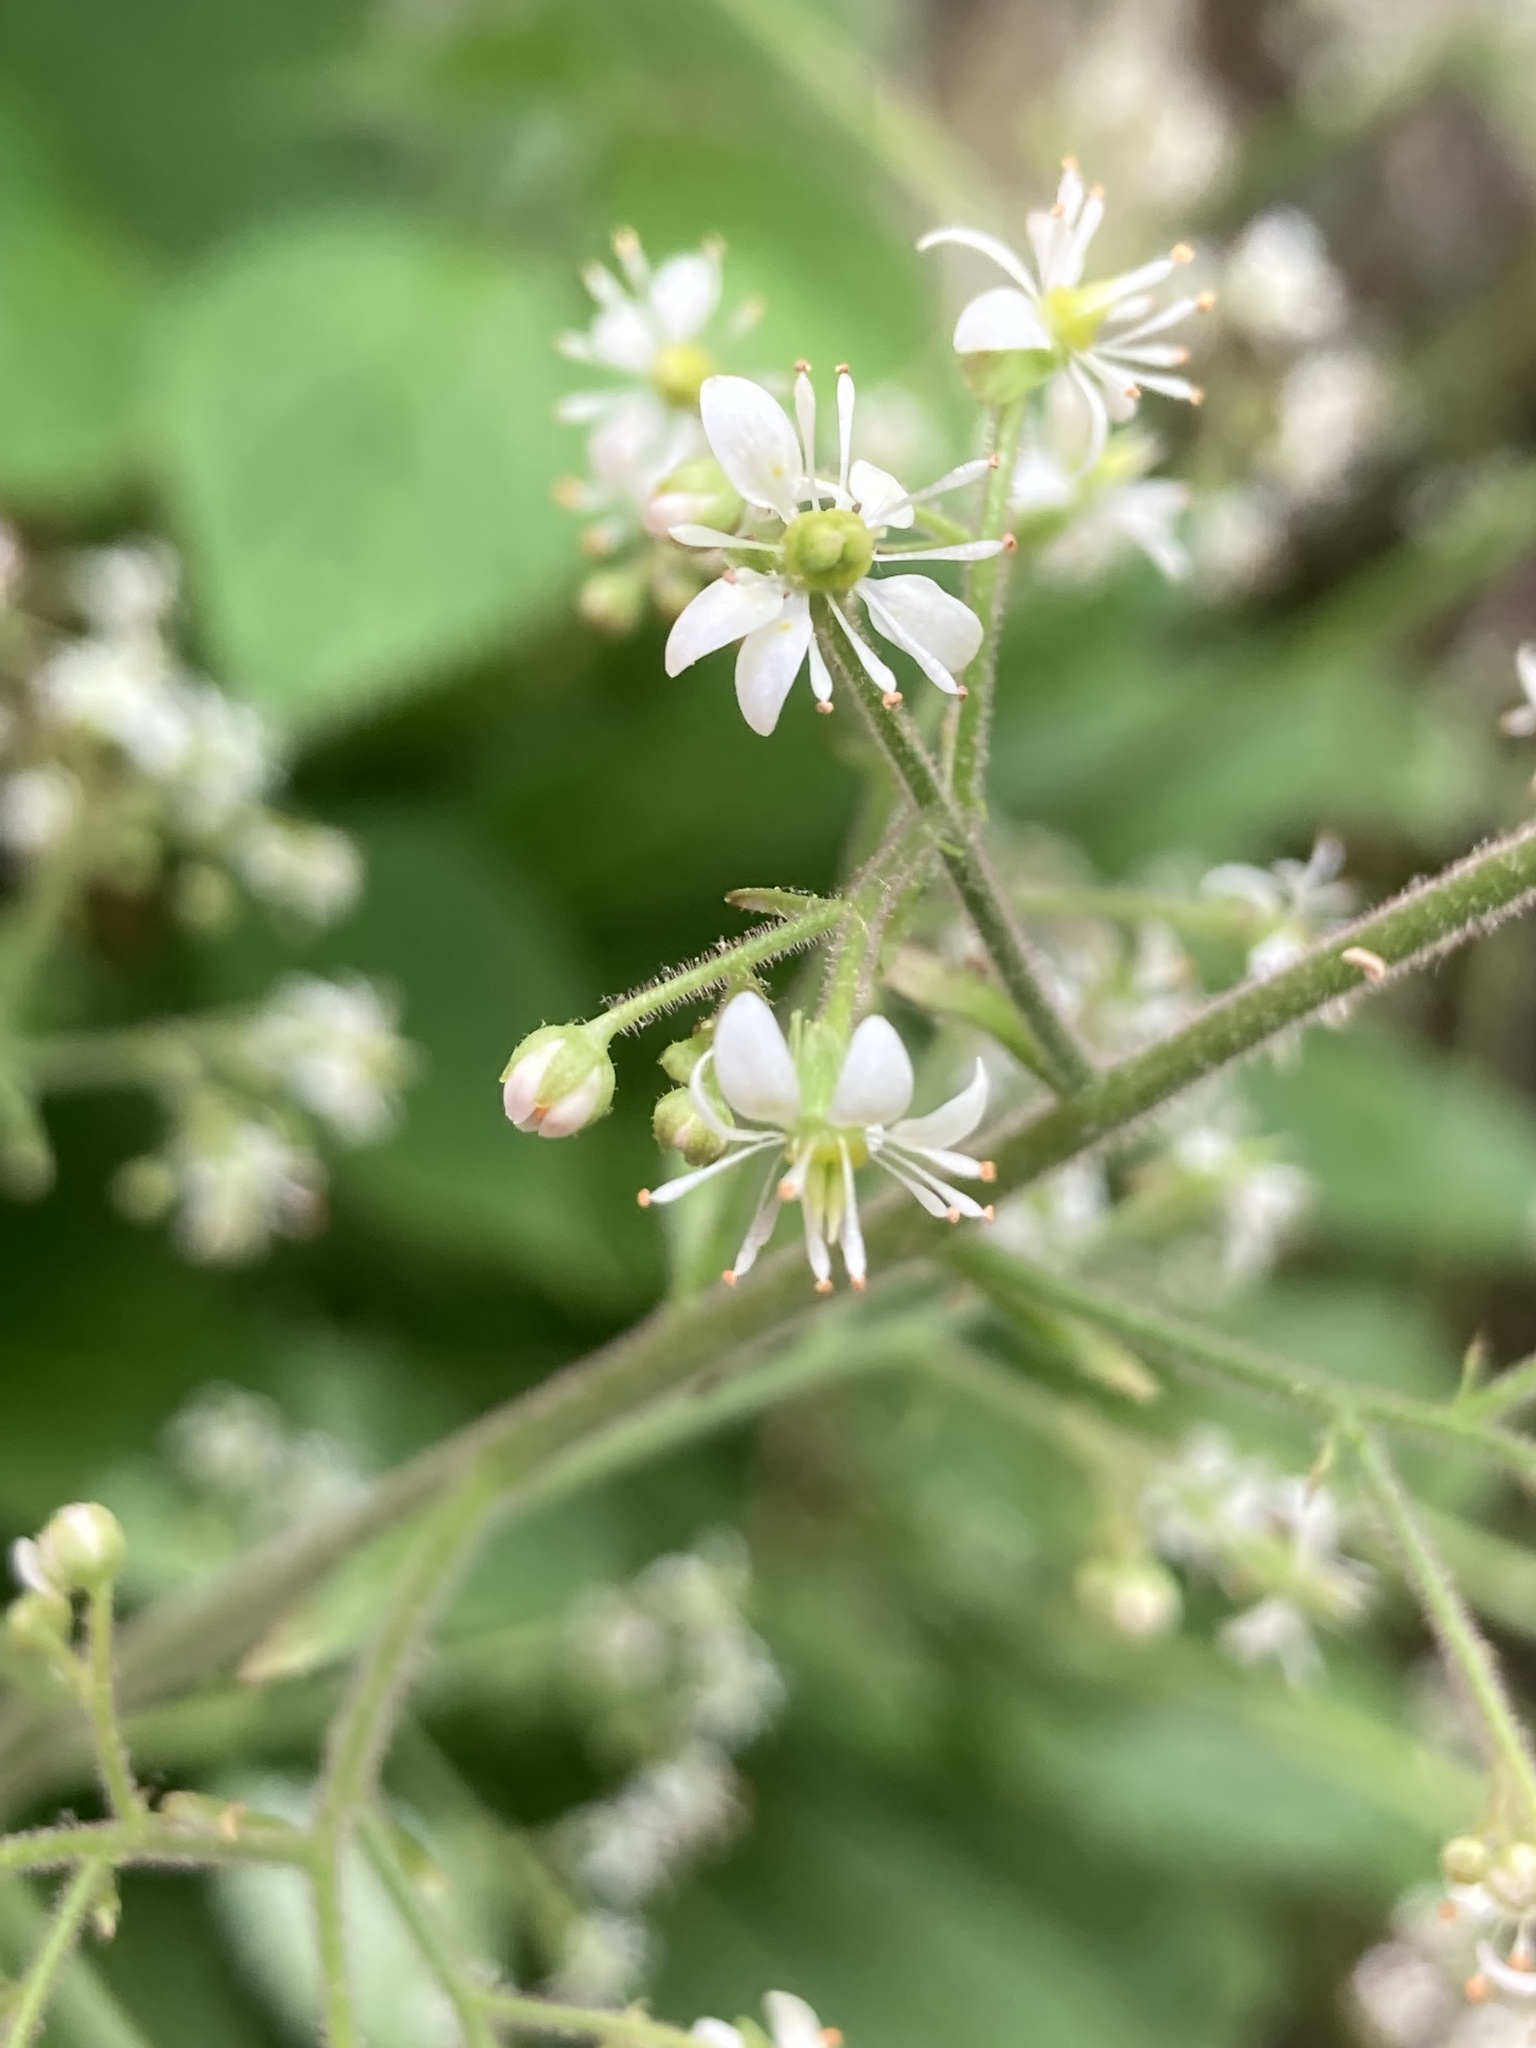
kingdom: Plantae
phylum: Tracheophyta
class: Magnoliopsida
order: Saxifragales
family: Saxifragaceae
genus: Micranthes
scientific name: Micranthes micranthidifolia
